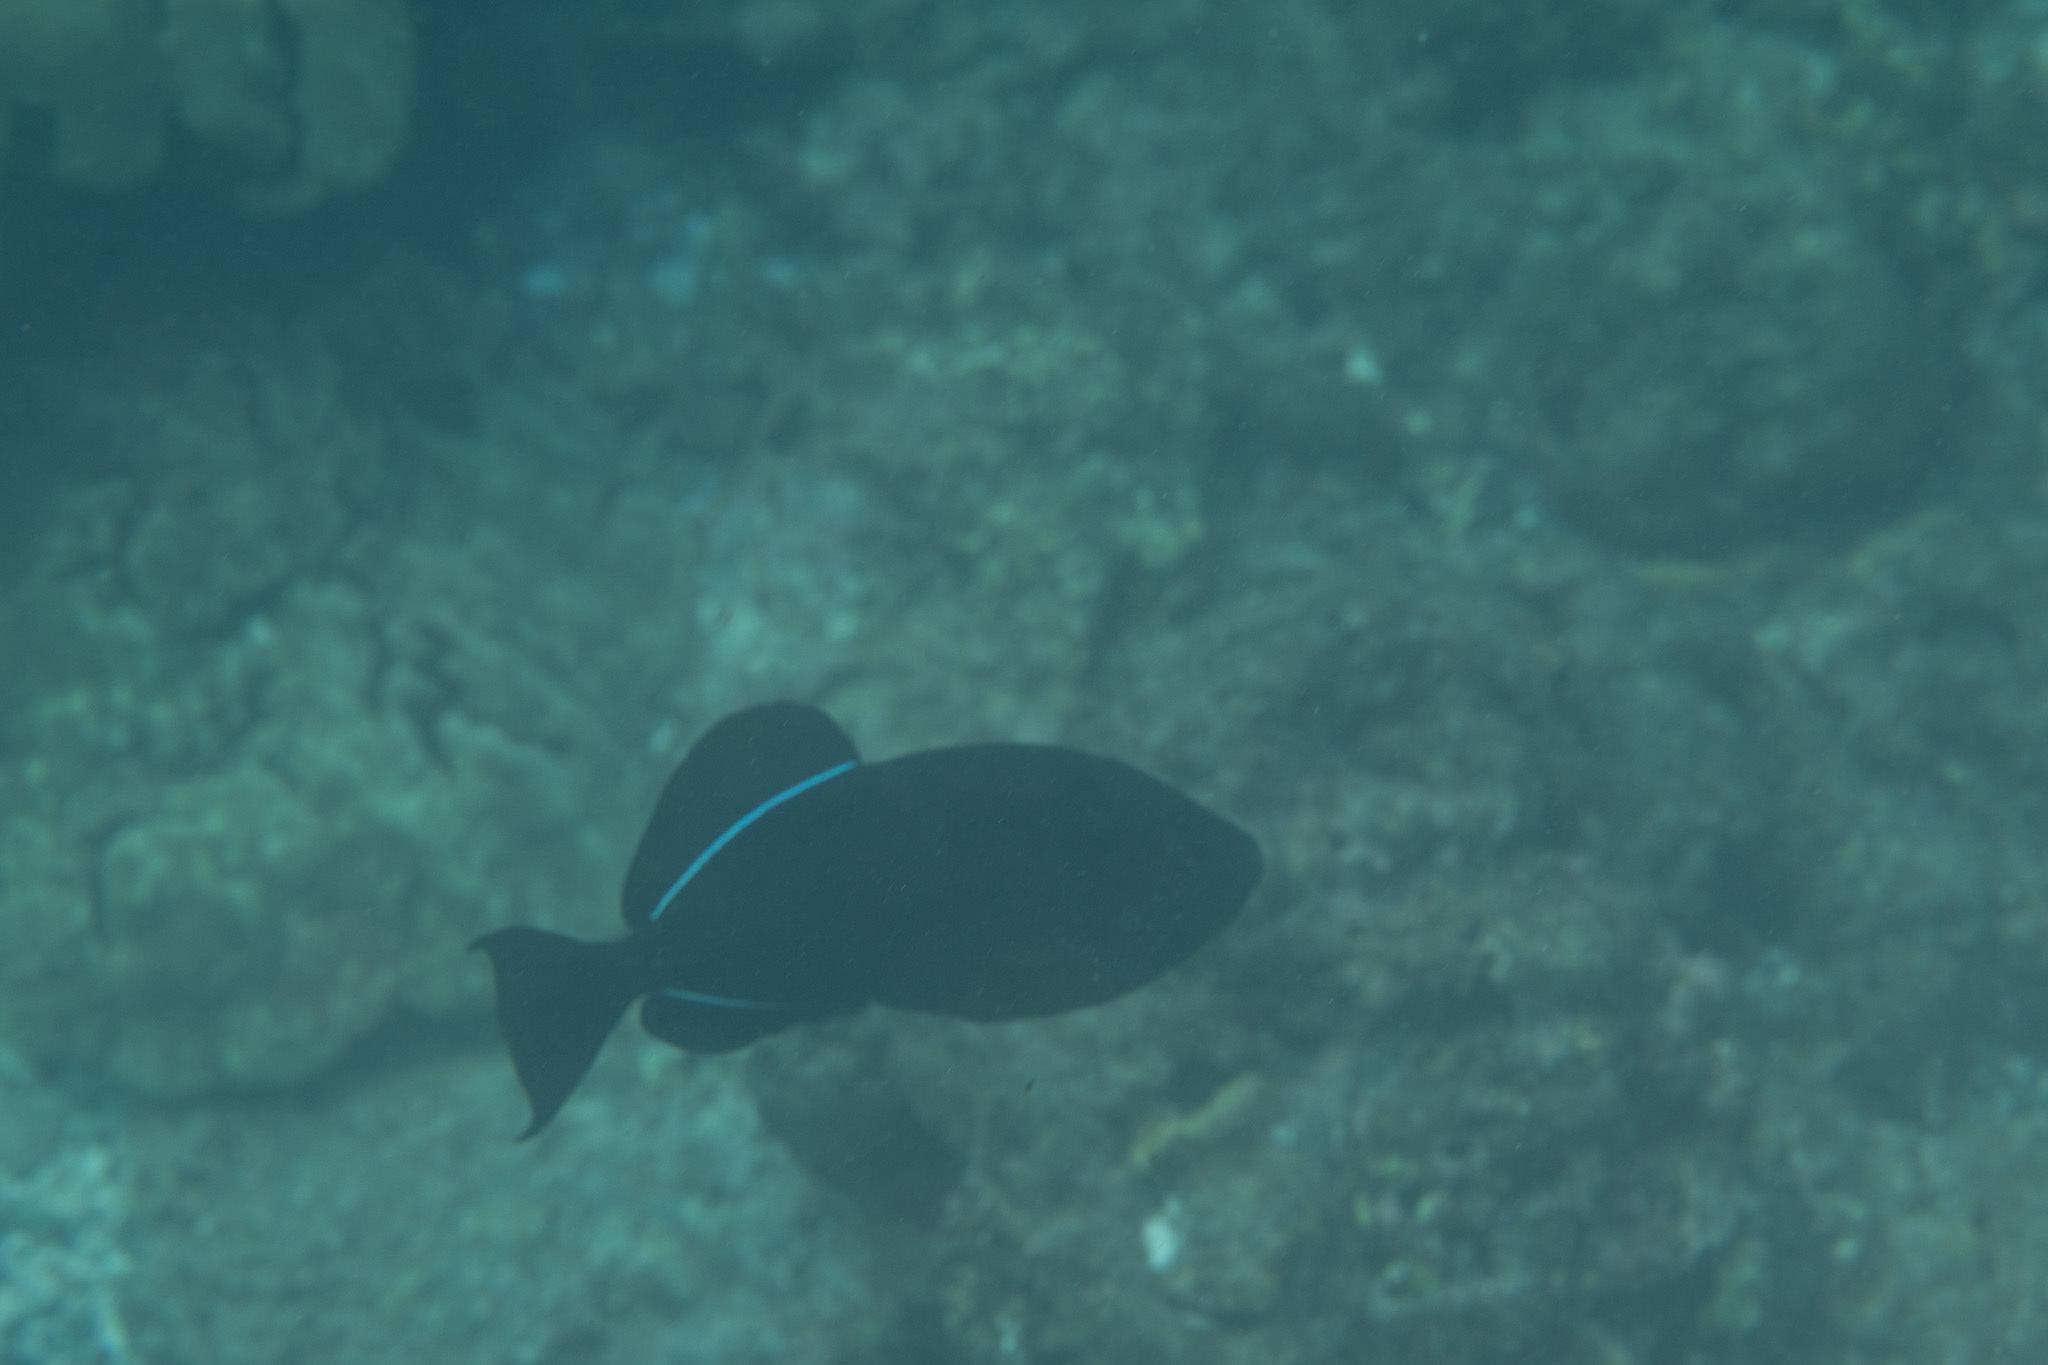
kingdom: Animalia
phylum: Chordata
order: Tetraodontiformes
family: Balistidae
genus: Melichthys
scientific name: Melichthys niger
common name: Black durgon
